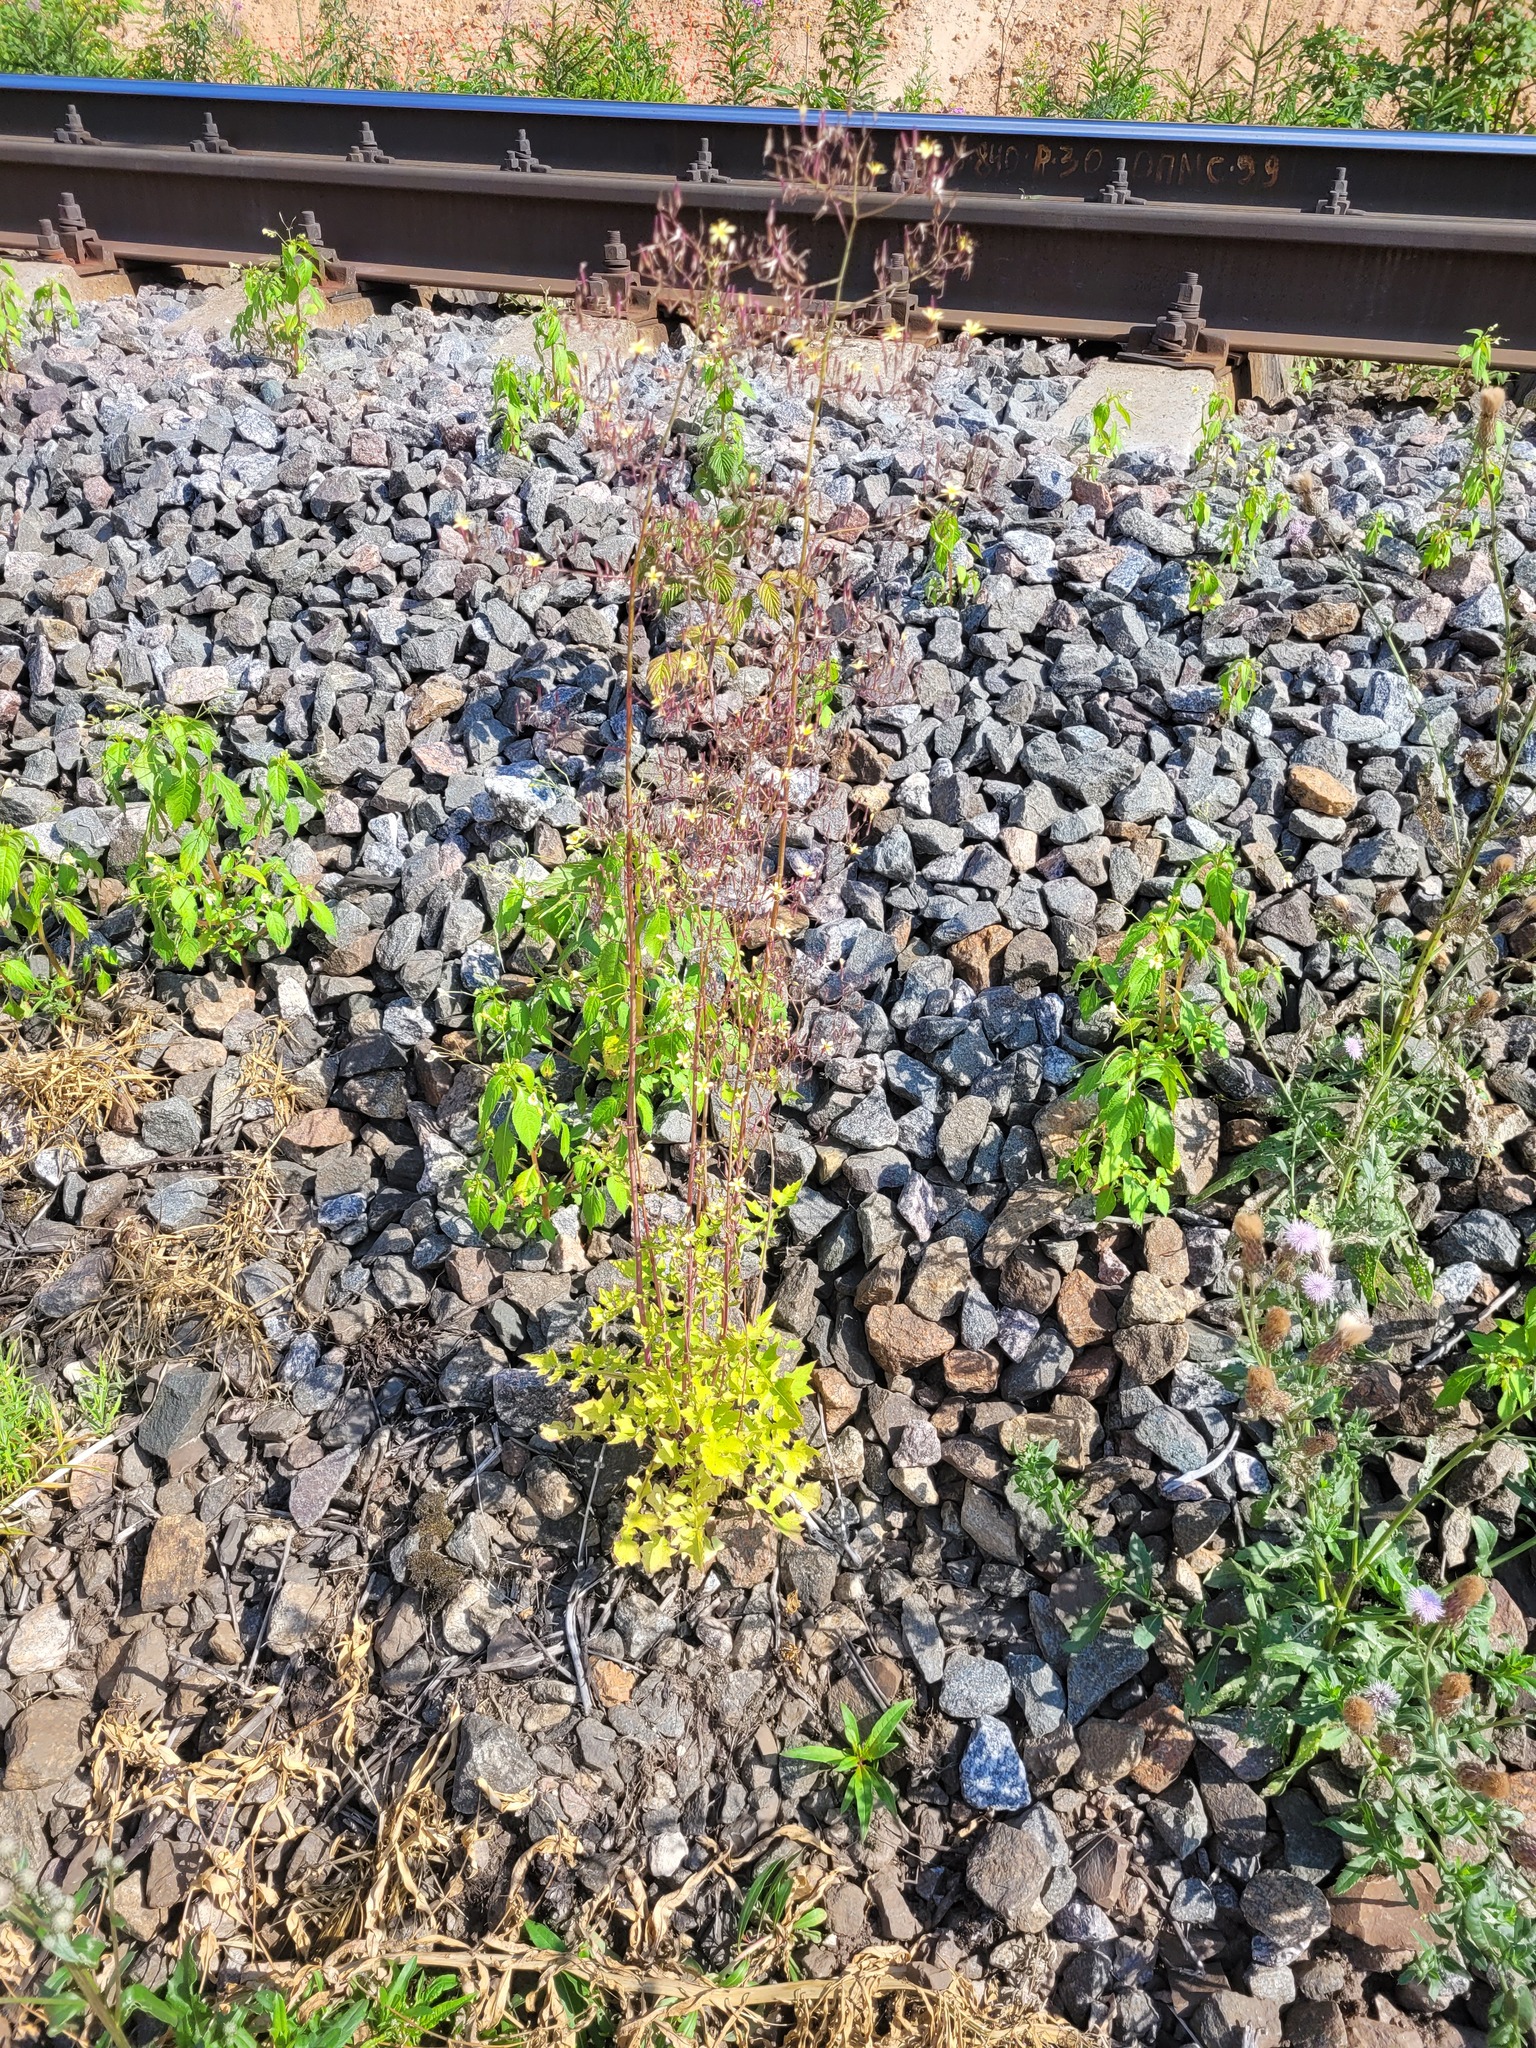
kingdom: Plantae
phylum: Tracheophyta
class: Magnoliopsida
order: Asterales
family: Asteraceae
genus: Mycelis
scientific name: Mycelis muralis
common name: Wall lettuce
